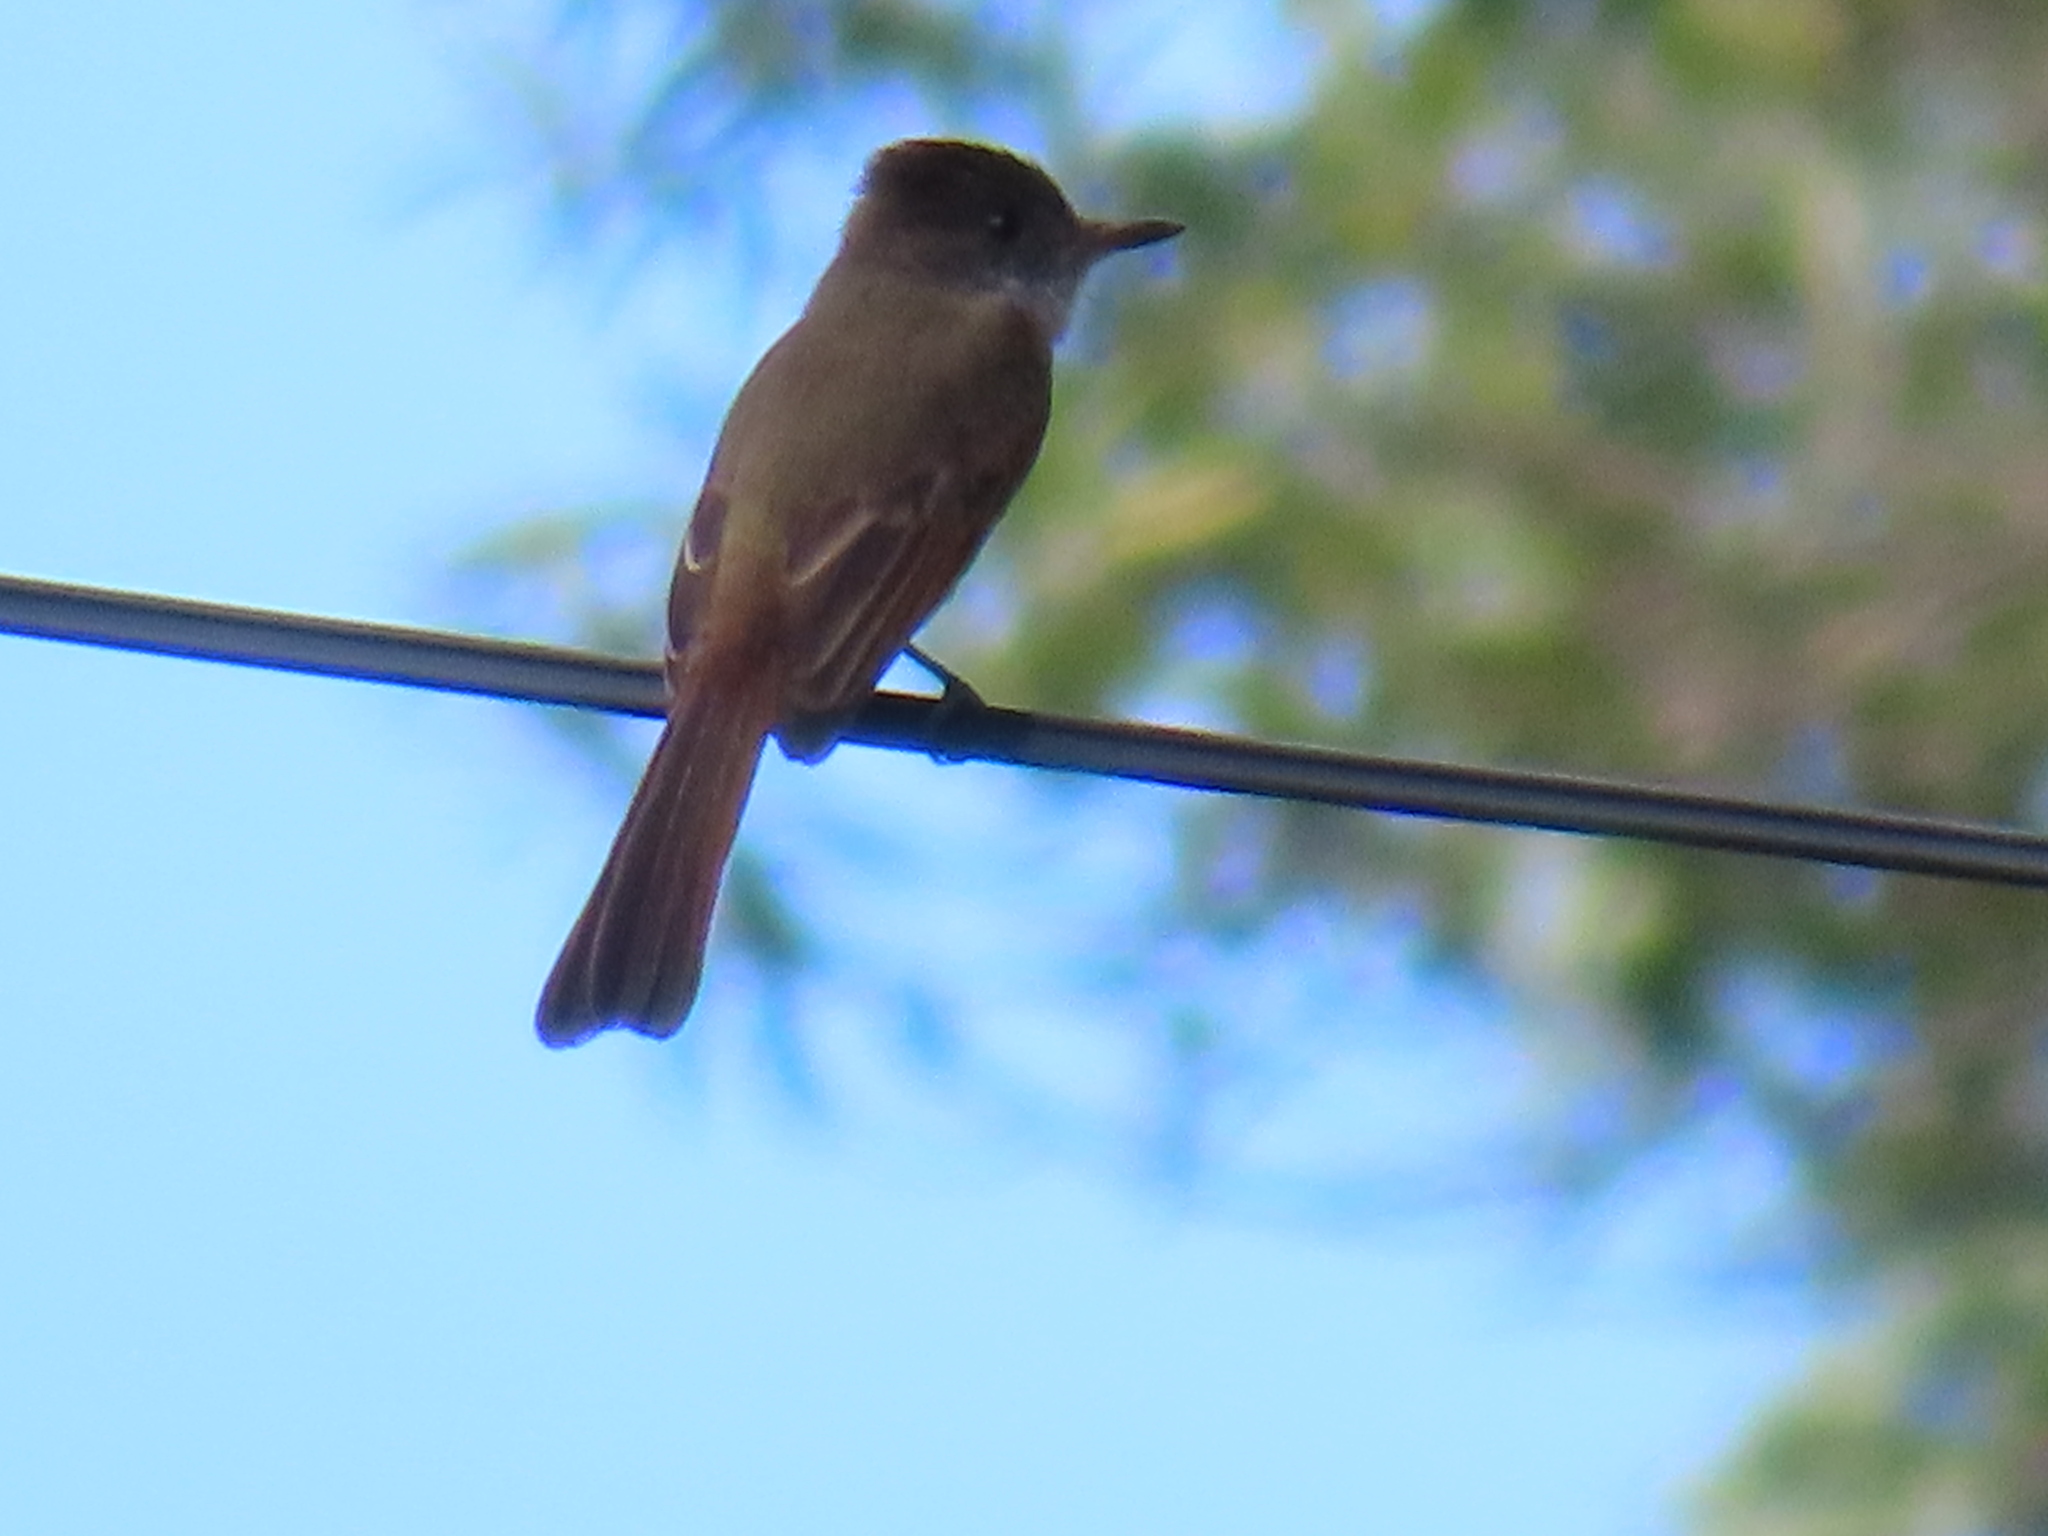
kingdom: Animalia
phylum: Chordata
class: Aves
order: Passeriformes
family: Tyrannidae
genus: Myiarchus
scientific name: Myiarchus tuberculifer
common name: Dusky-capped flycatcher
